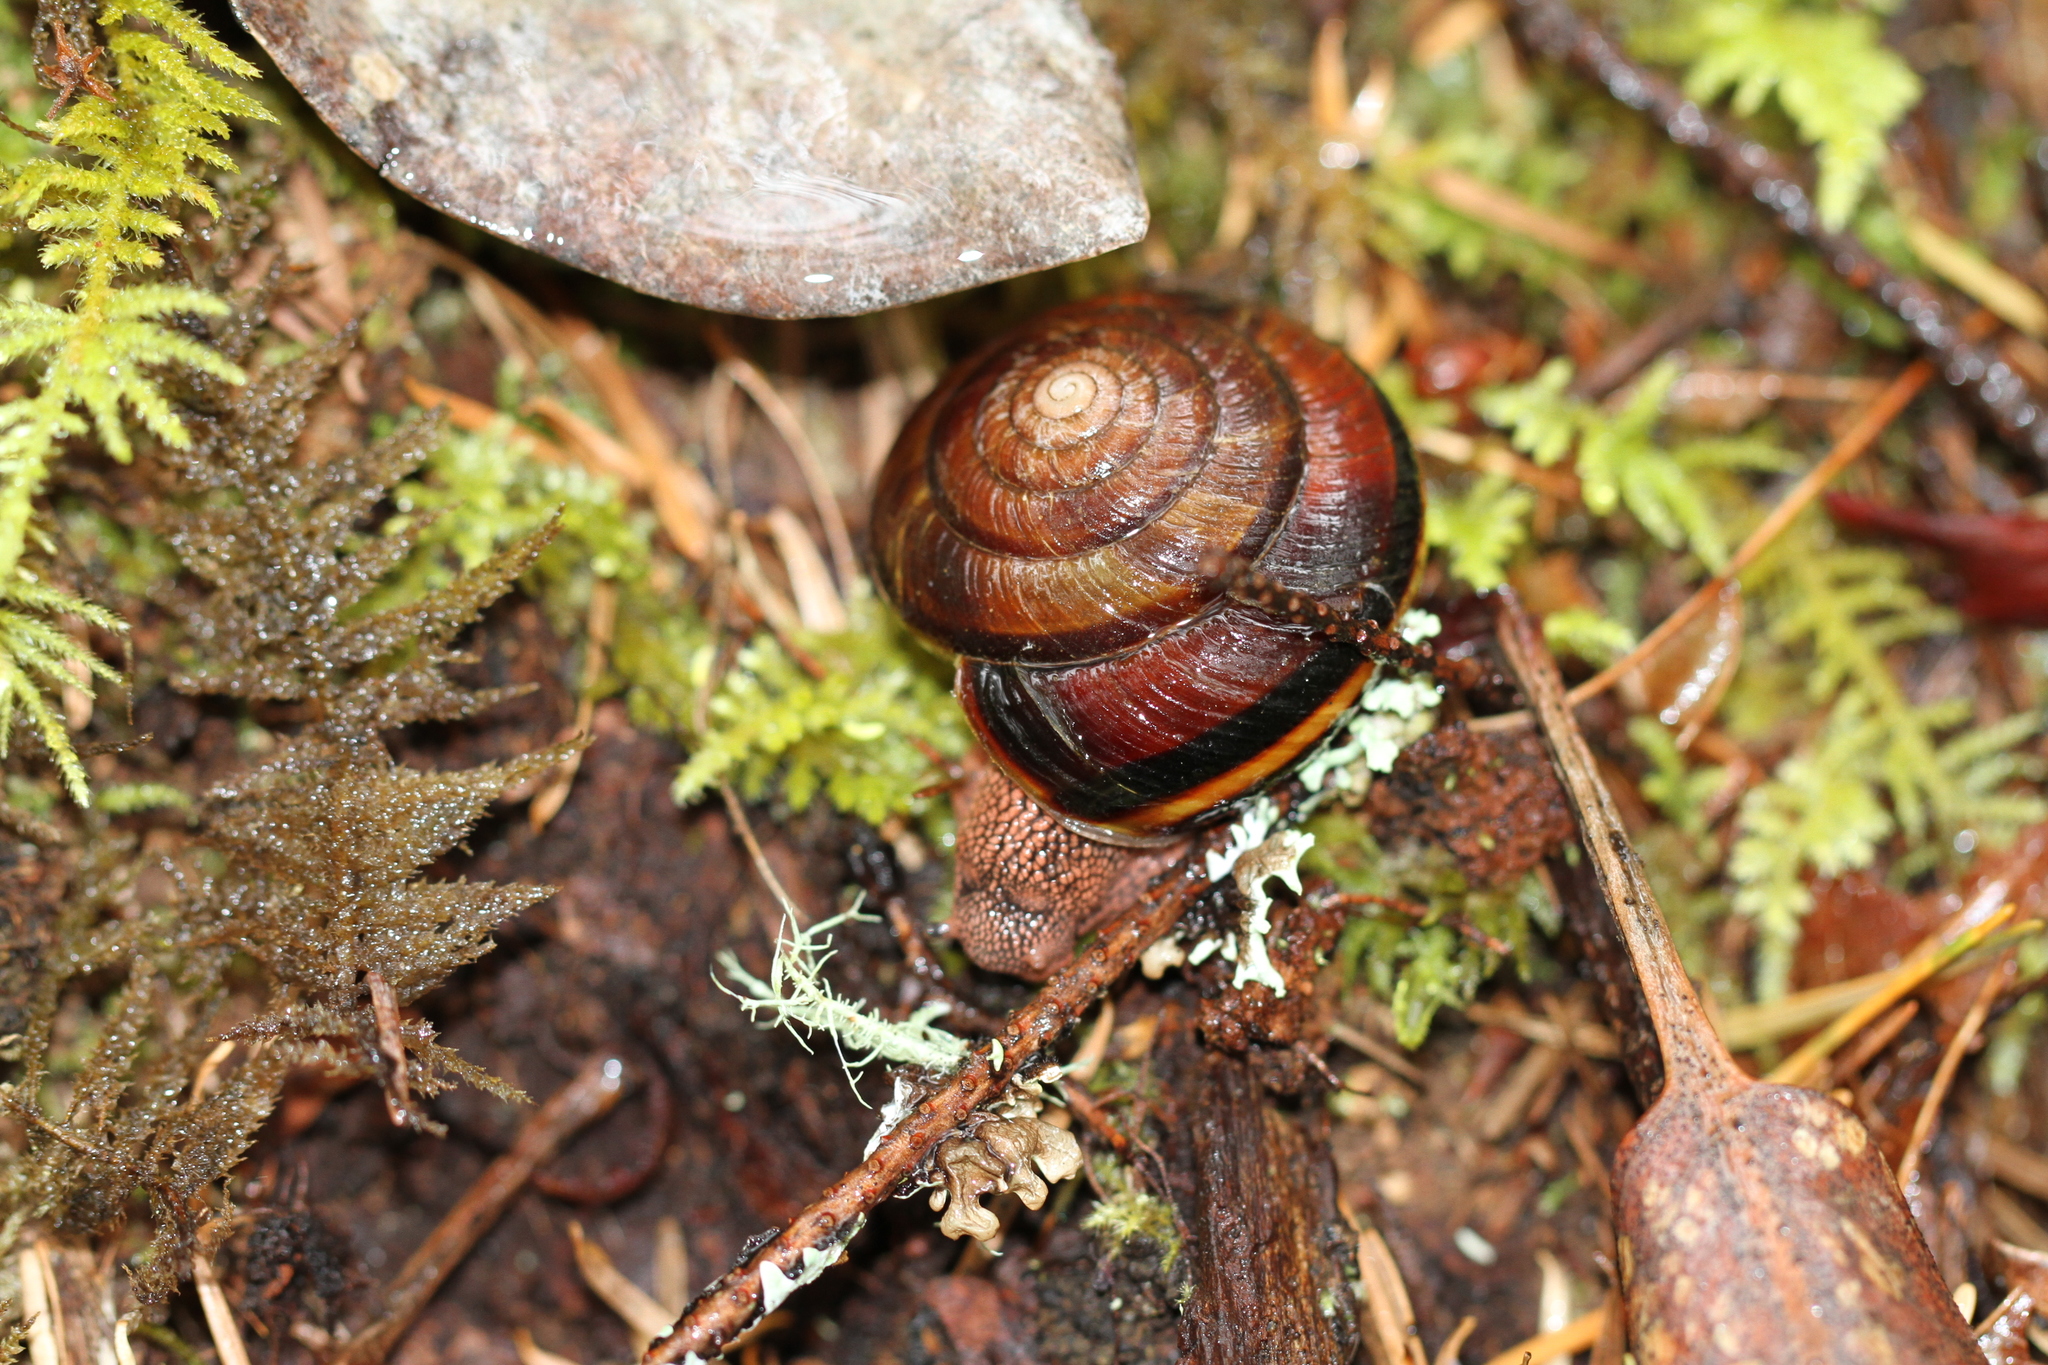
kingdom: Animalia
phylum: Mollusca
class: Gastropoda
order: Stylommatophora
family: Xanthonychidae
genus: Monadenia
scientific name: Monadenia fidelis
